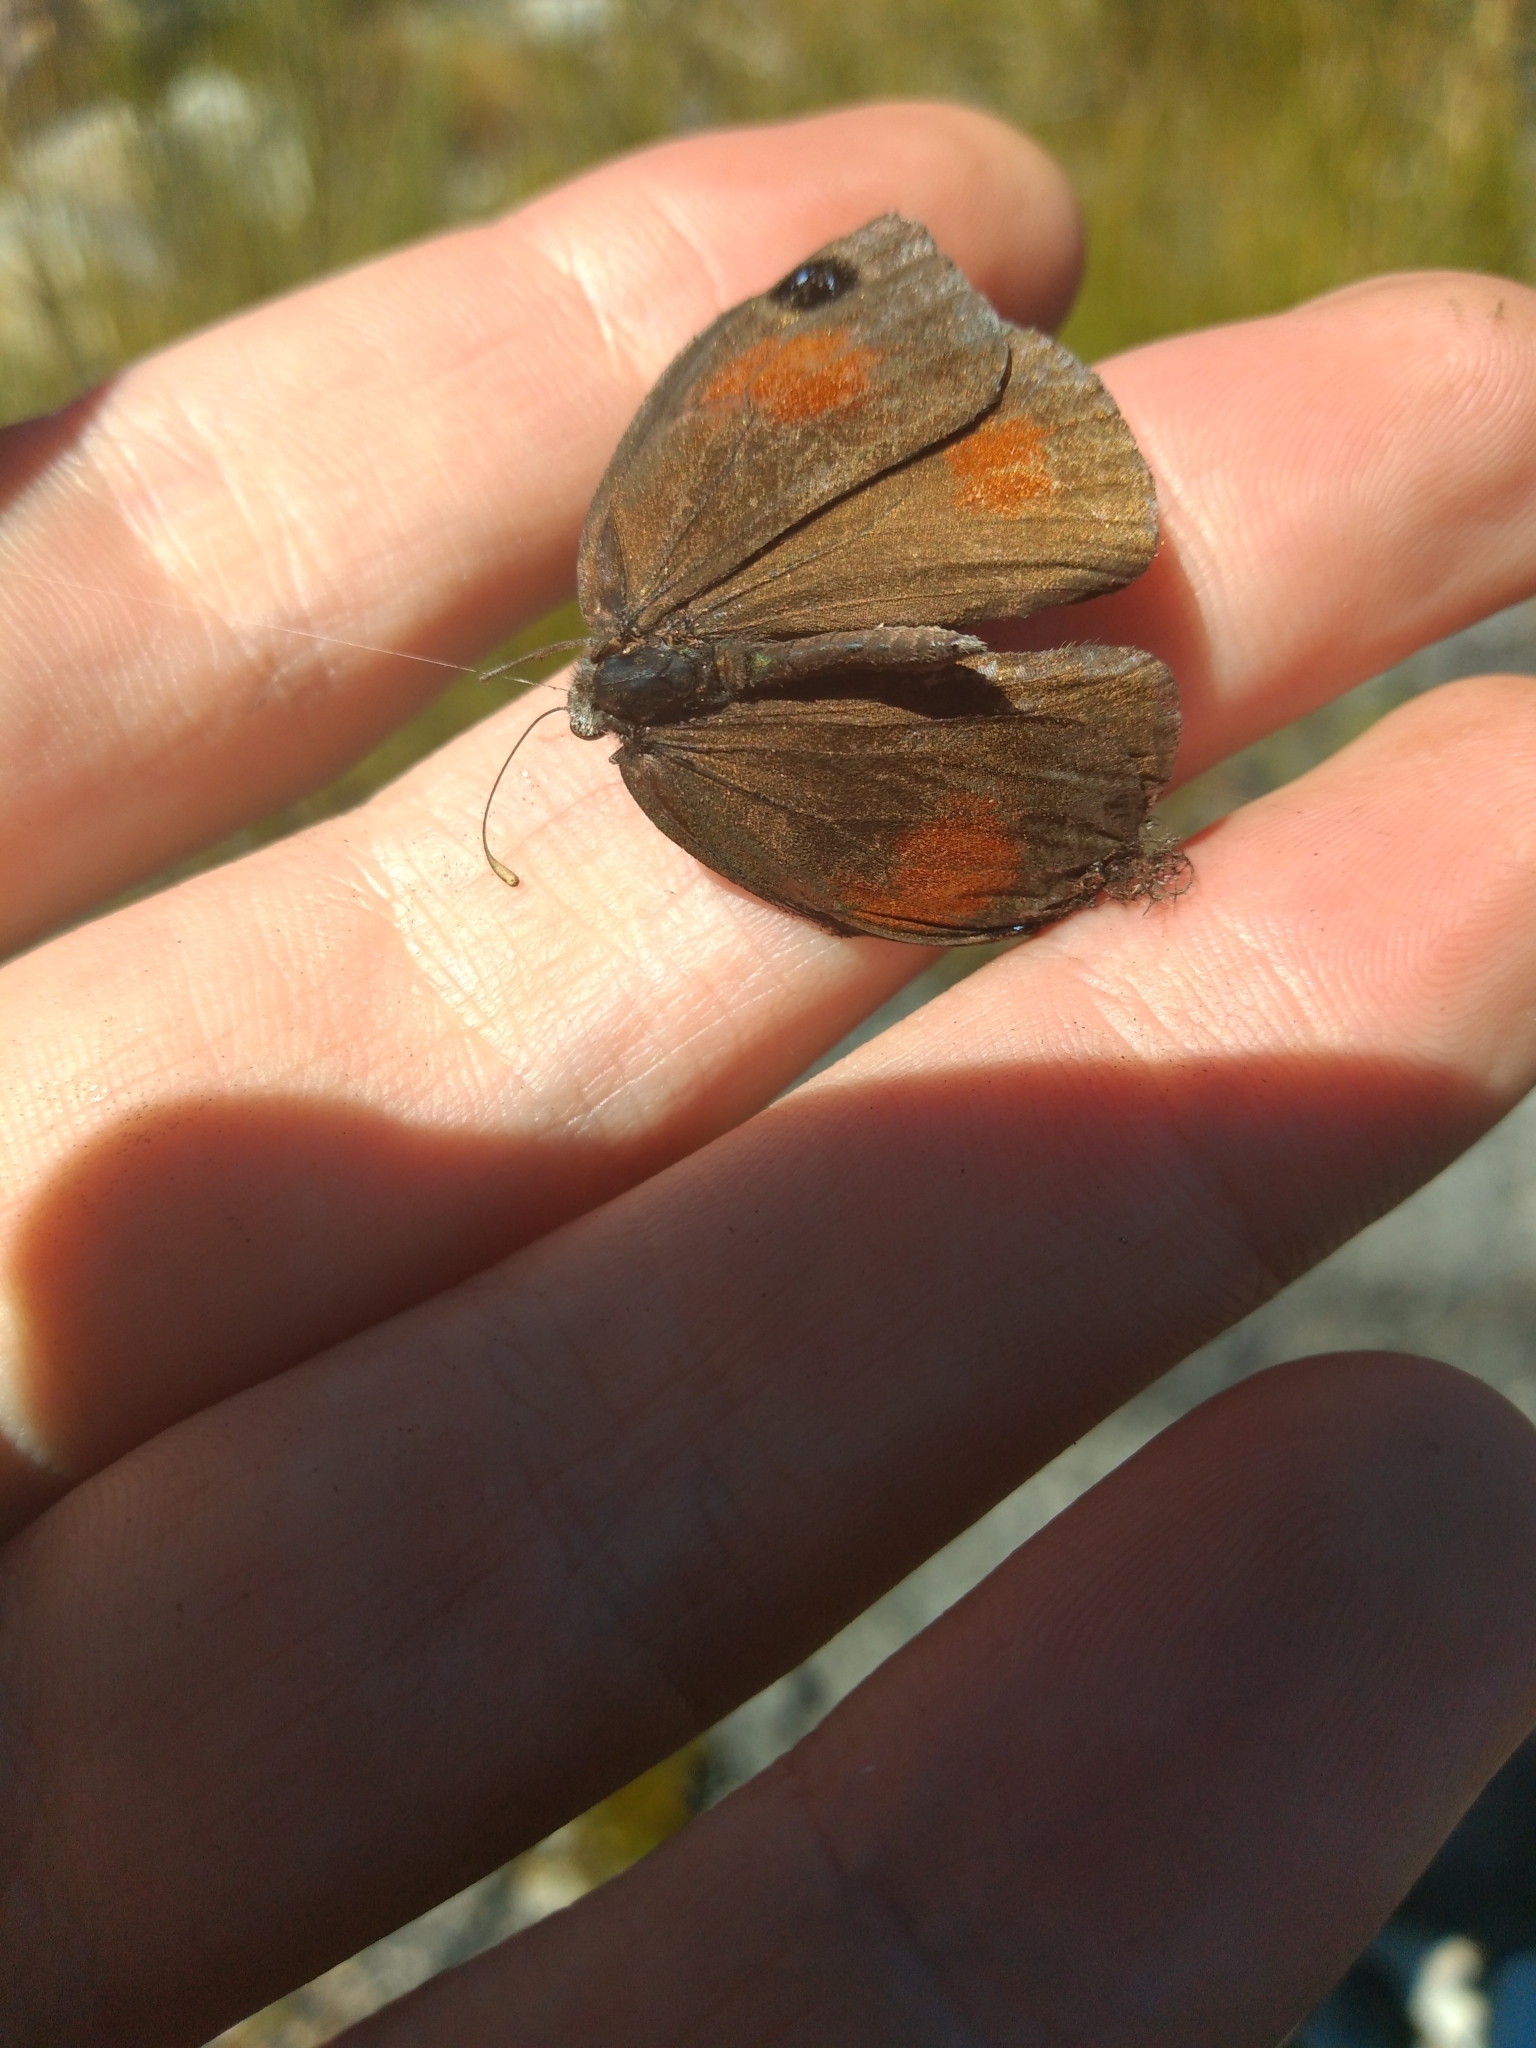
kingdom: Animalia
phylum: Arthropoda
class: Insecta
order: Lepidoptera
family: Nymphalidae
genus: Stygionympha
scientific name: Stygionympha vigilans
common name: Western hillside brown
